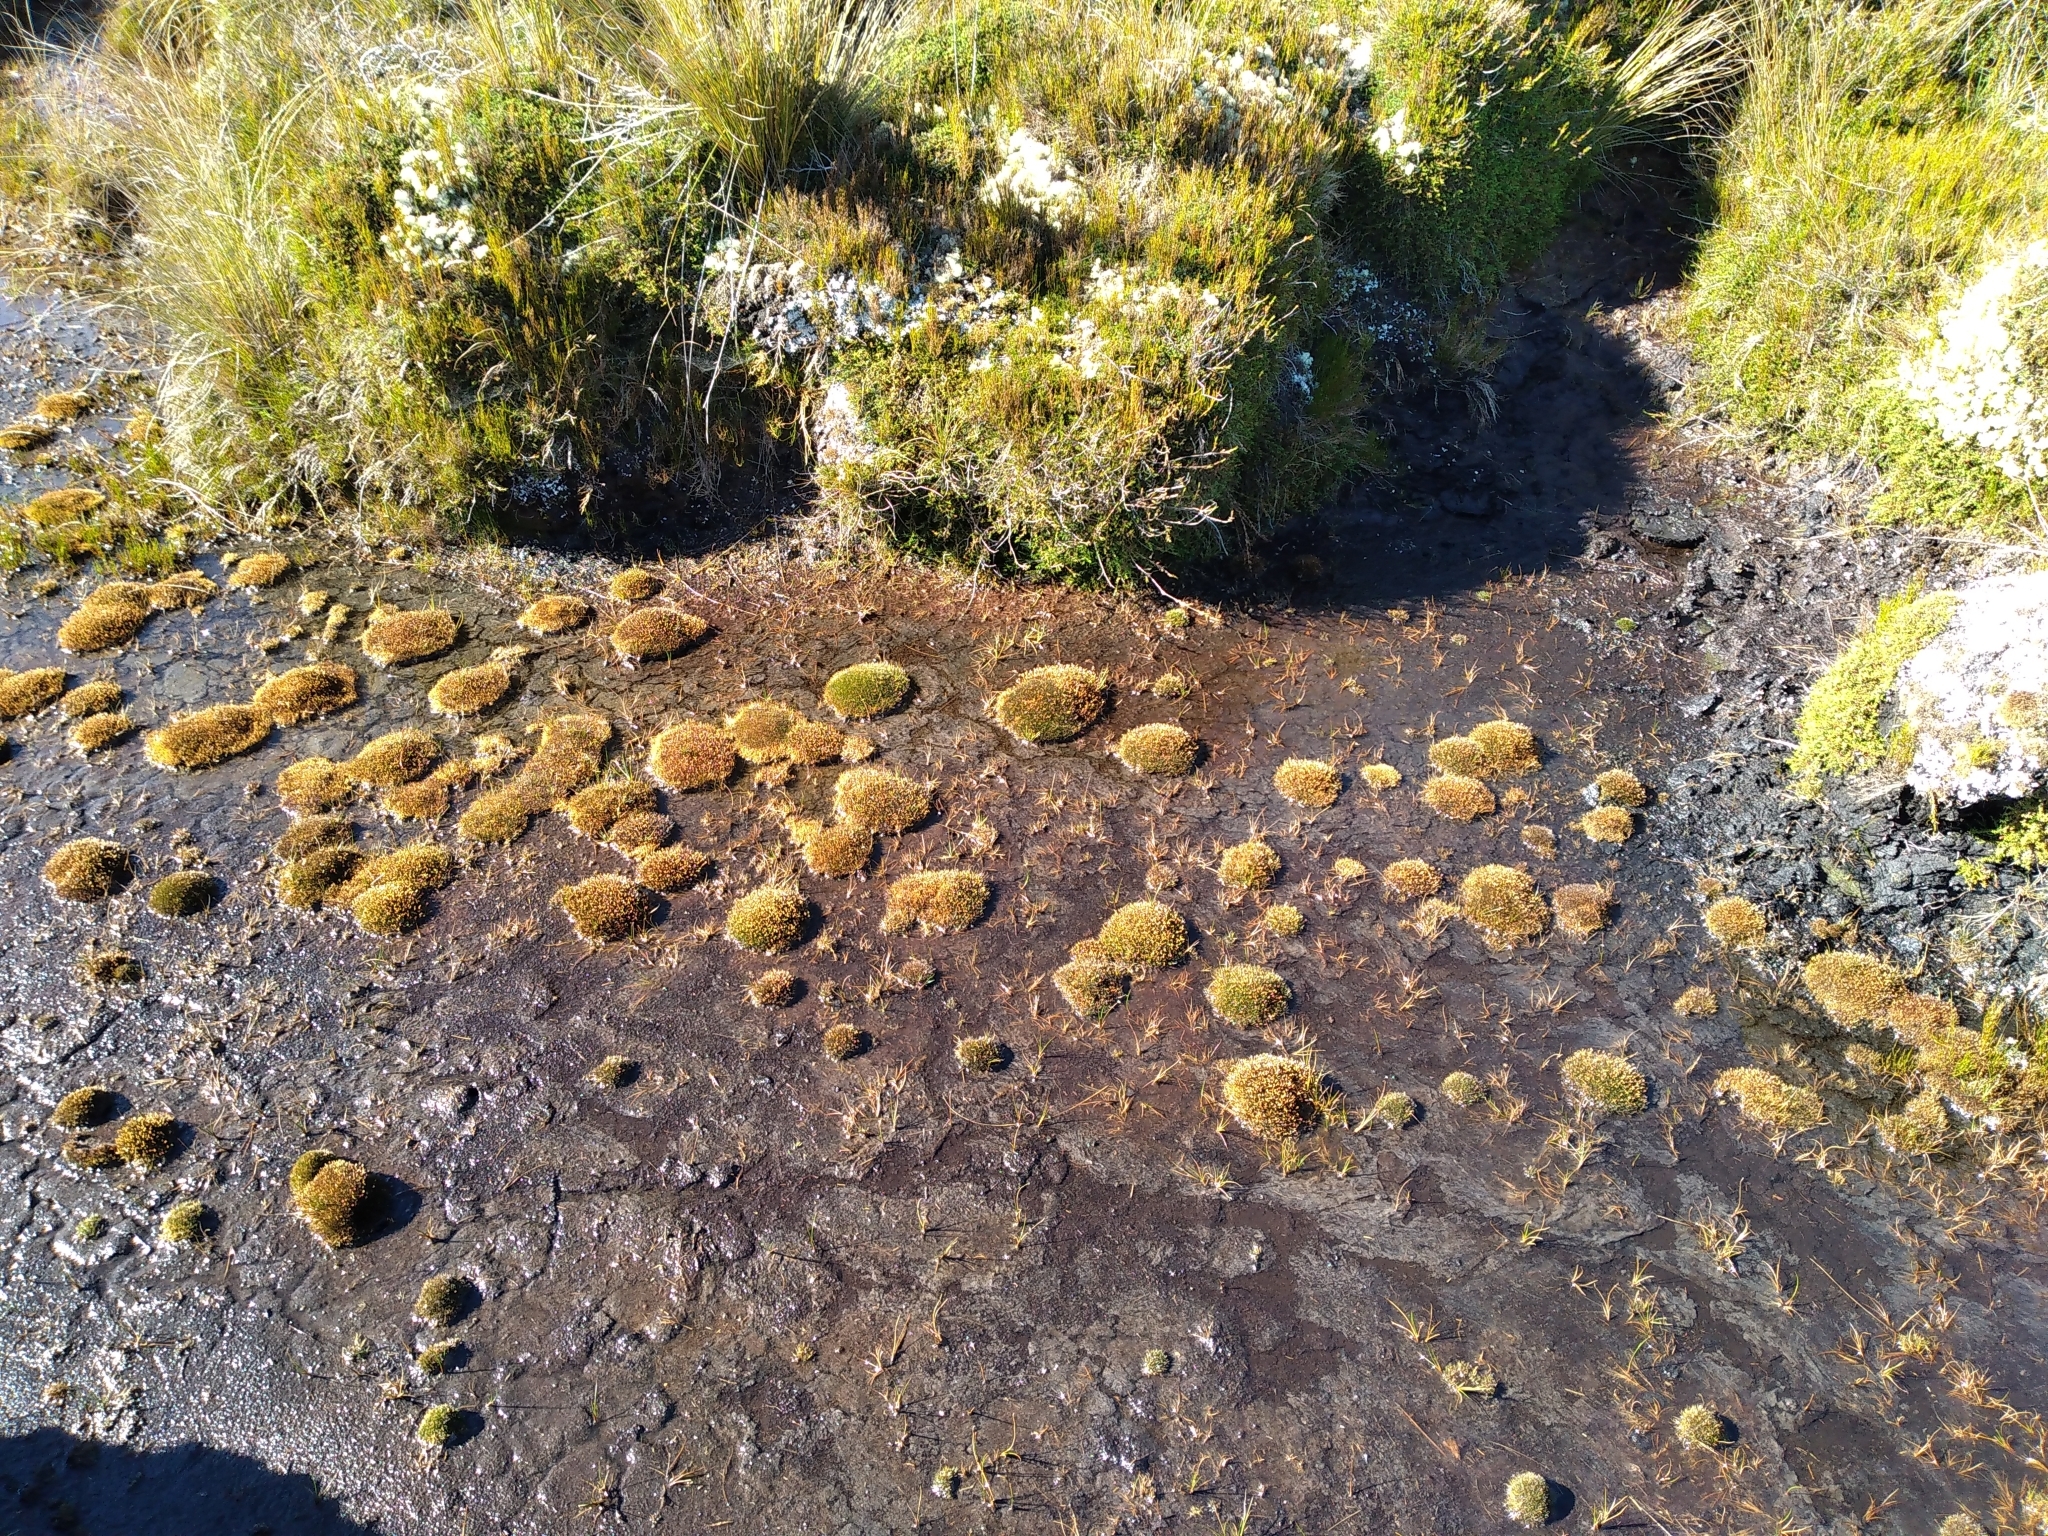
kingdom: Plantae
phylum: Tracheophyta
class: Liliopsida
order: Poales
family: Restionaceae
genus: Centrolepis
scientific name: Centrolepis ciliata
